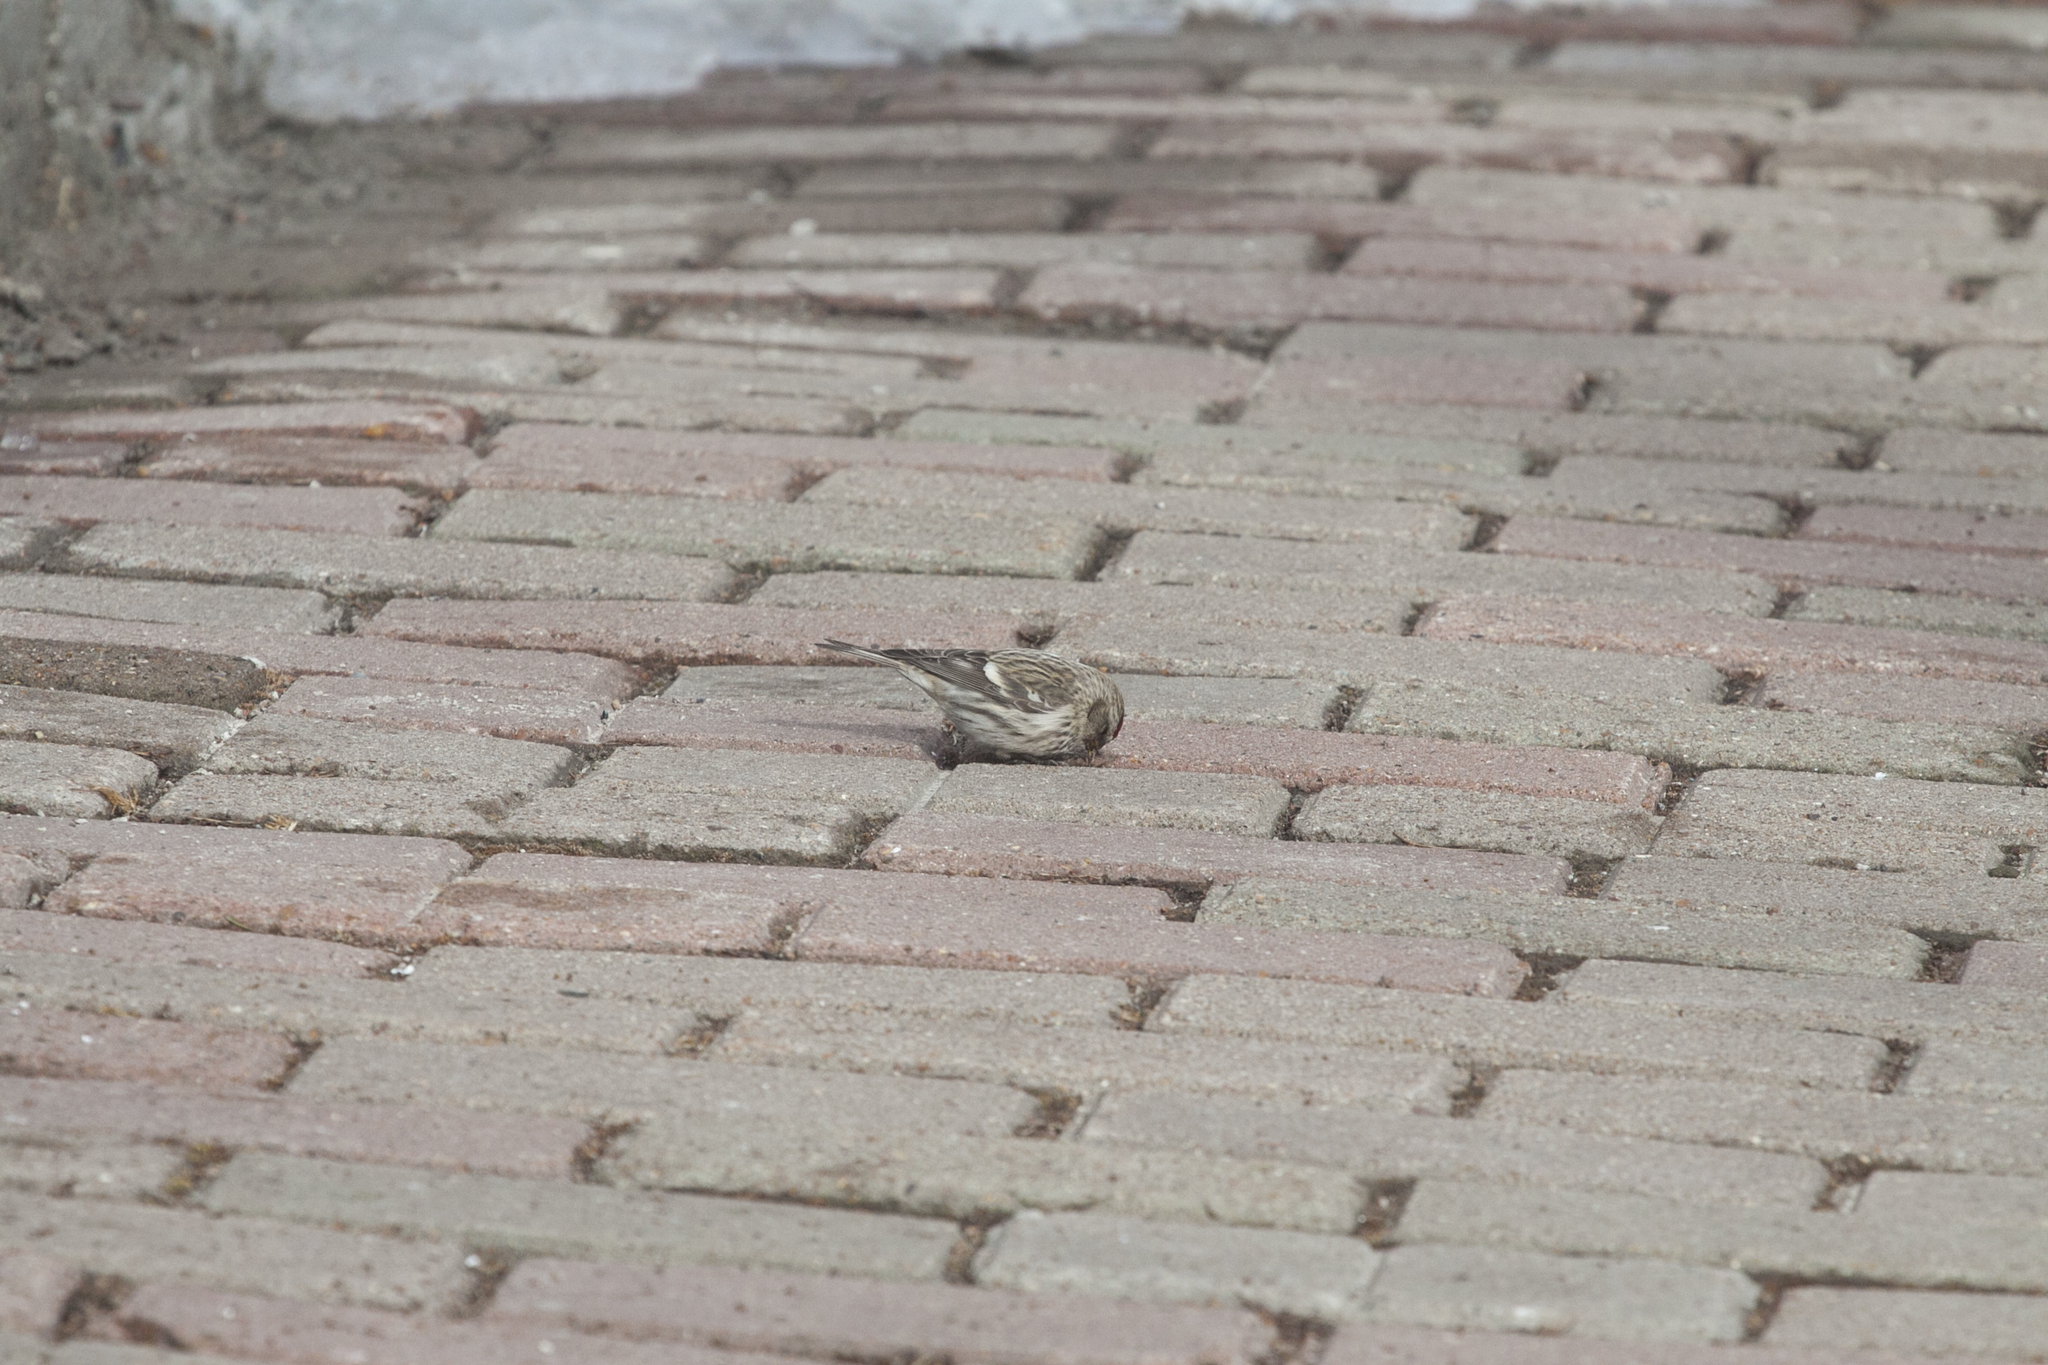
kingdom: Animalia
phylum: Chordata
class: Aves
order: Passeriformes
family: Fringillidae
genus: Acanthis
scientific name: Acanthis flammea
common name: Common redpoll
